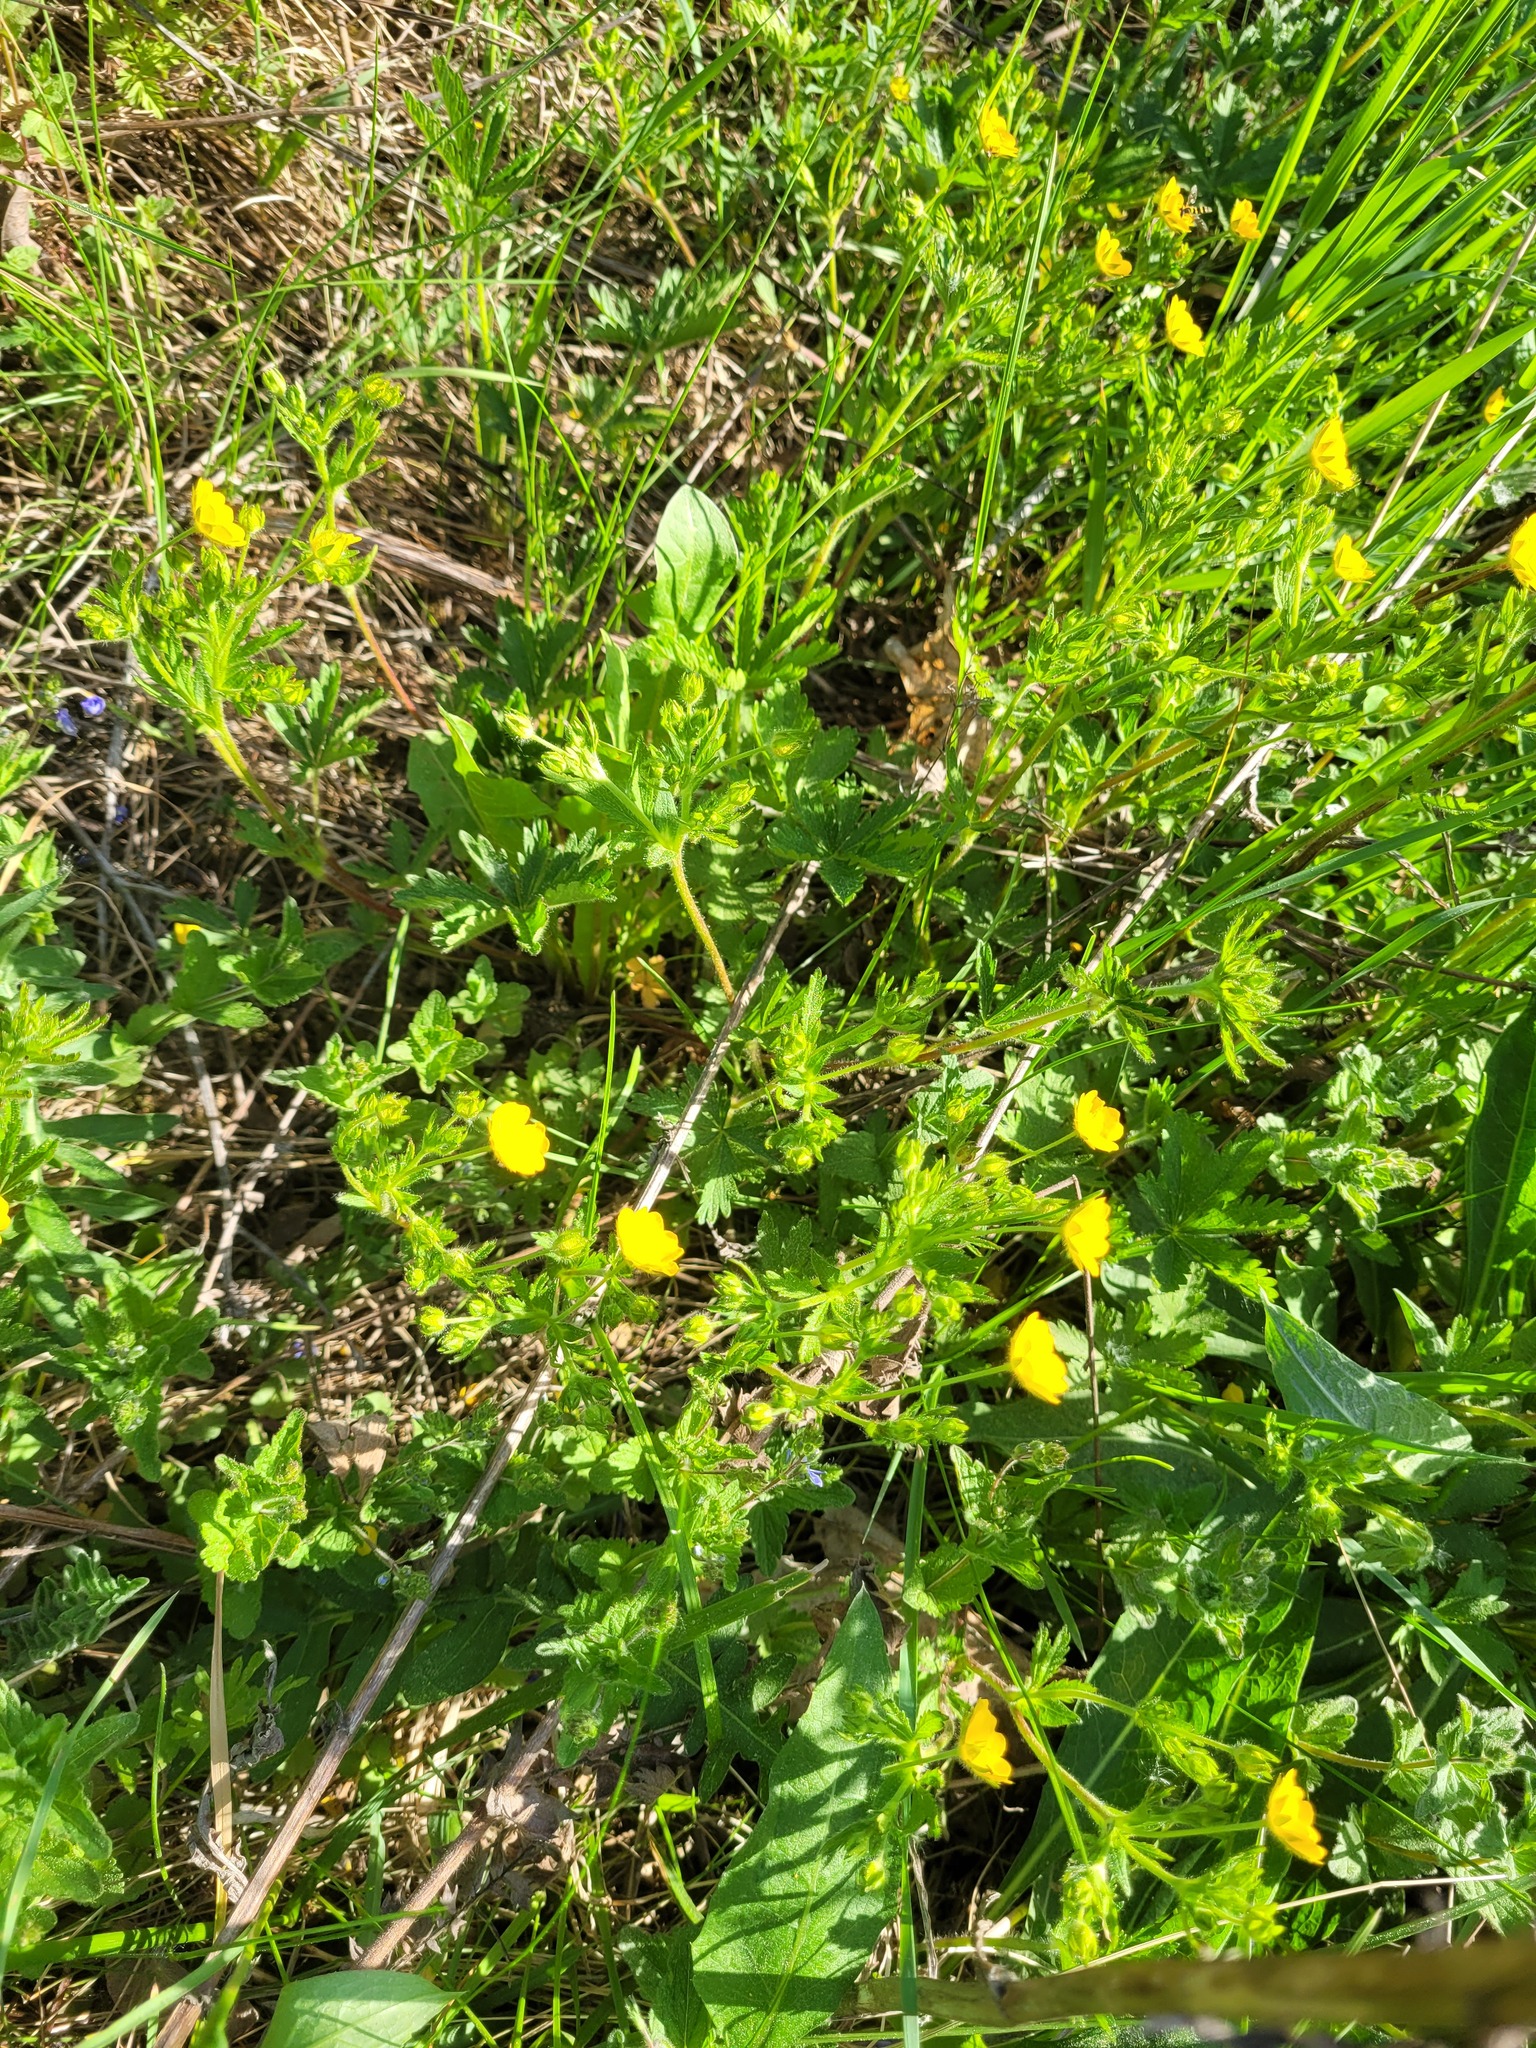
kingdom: Plantae
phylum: Tracheophyta
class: Magnoliopsida
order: Rosales
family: Rosaceae
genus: Potentilla
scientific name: Potentilla thuringiaca
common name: European cinquefoil
